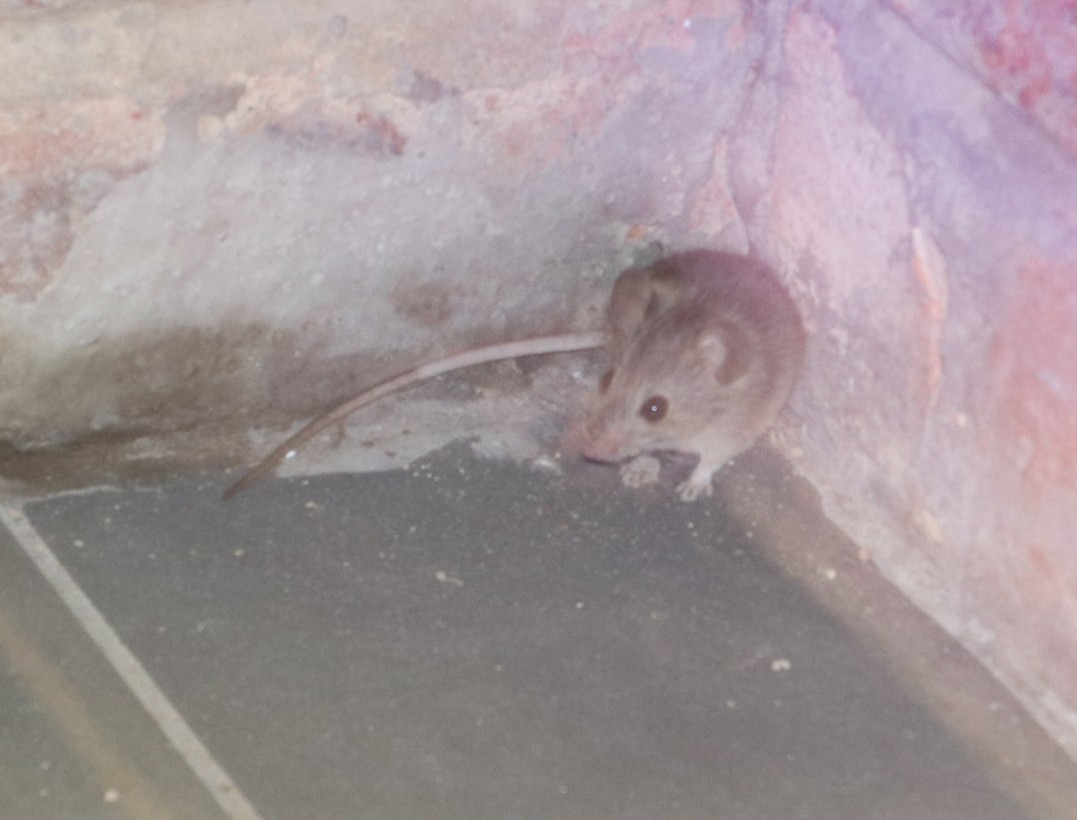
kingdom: Animalia
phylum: Chordata
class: Mammalia
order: Rodentia
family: Muridae
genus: Micaelamys
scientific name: Micaelamys namaquensis
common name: Namaqua micaelamys
